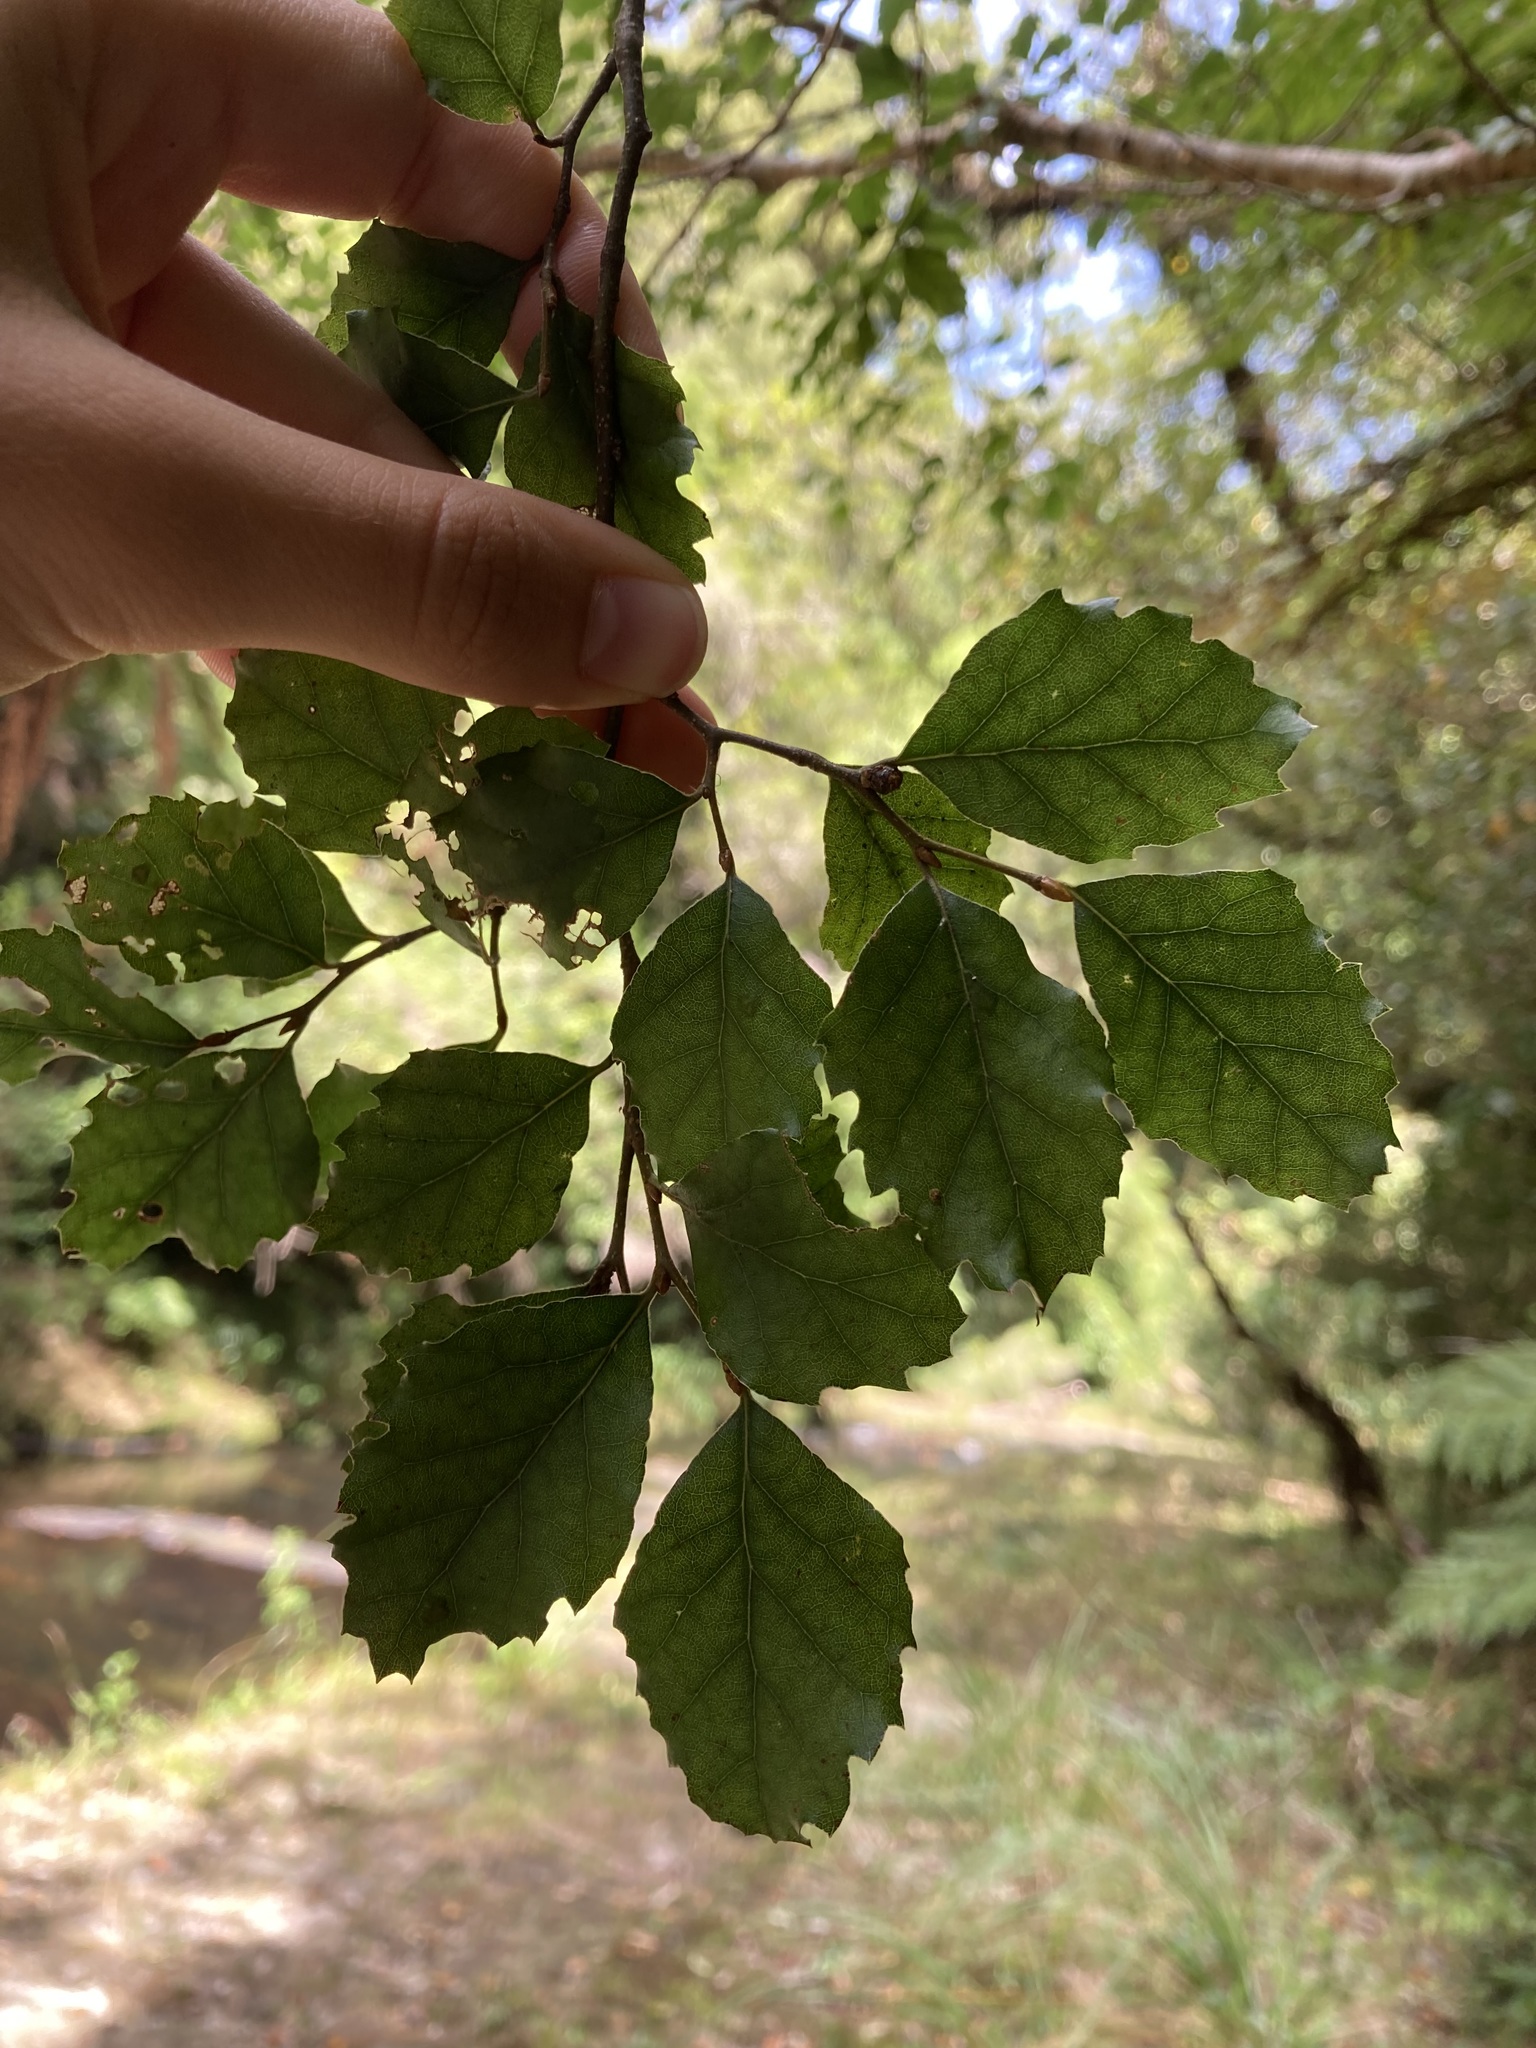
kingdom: Plantae
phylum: Tracheophyta
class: Magnoliopsida
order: Fagales
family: Nothofagaceae
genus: Nothofagus
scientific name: Nothofagus fusca
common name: Red beech
